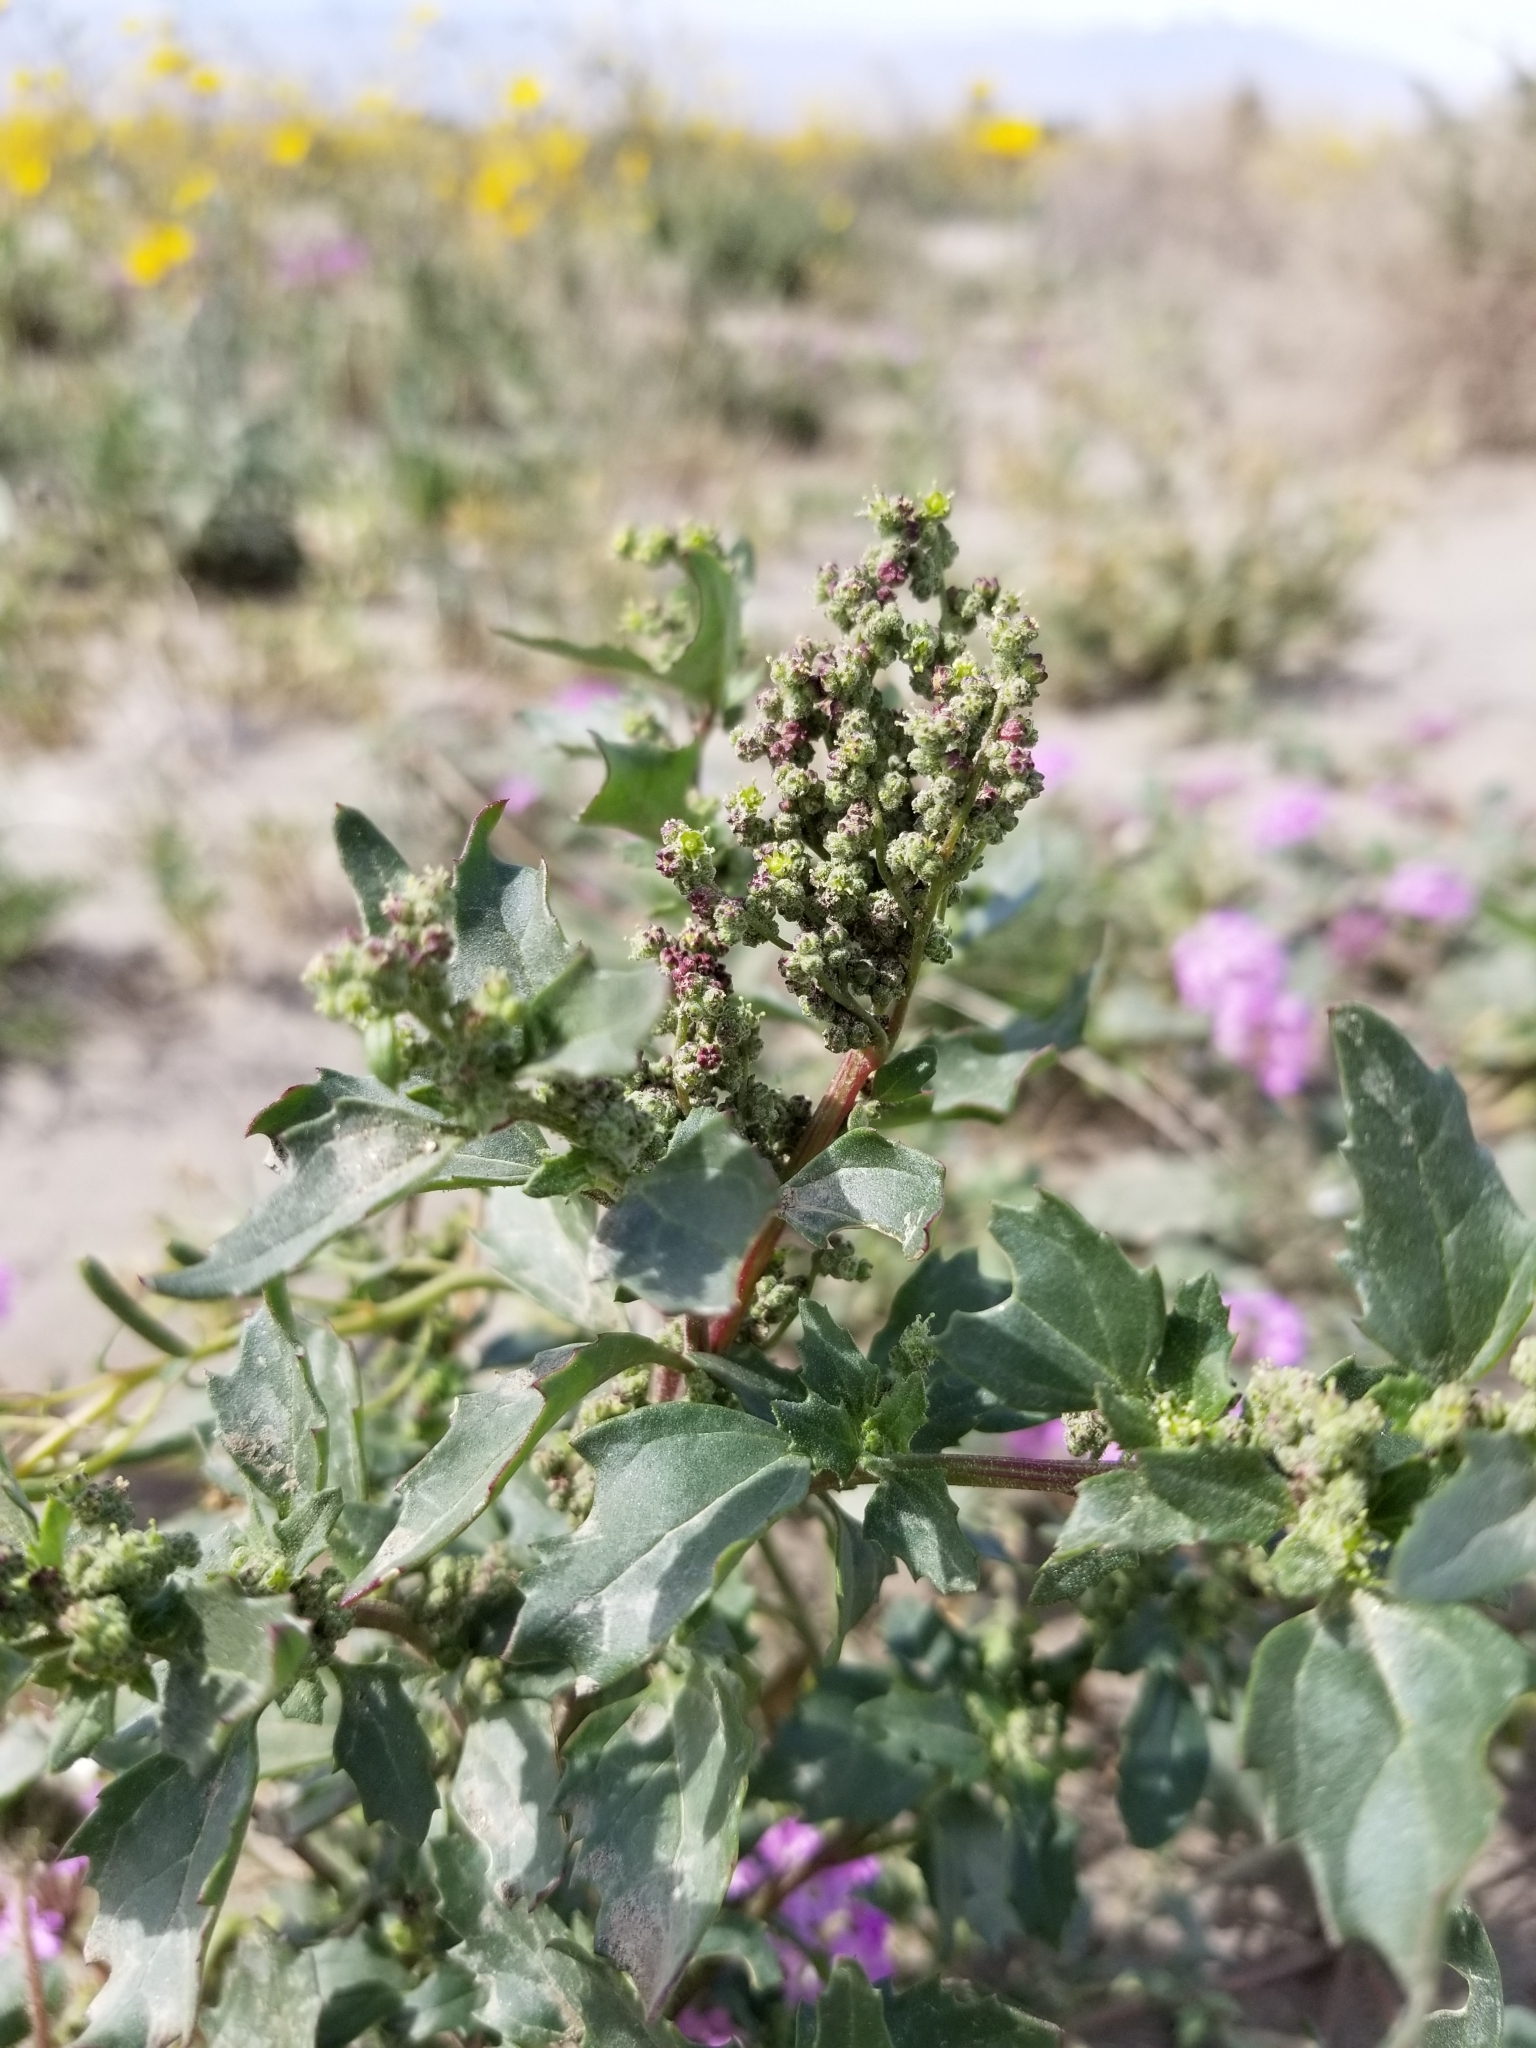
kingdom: Plantae
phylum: Tracheophyta
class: Magnoliopsida
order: Caryophyllales
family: Amaranthaceae
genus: Chenopodiastrum
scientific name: Chenopodiastrum murale
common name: Sowbane
